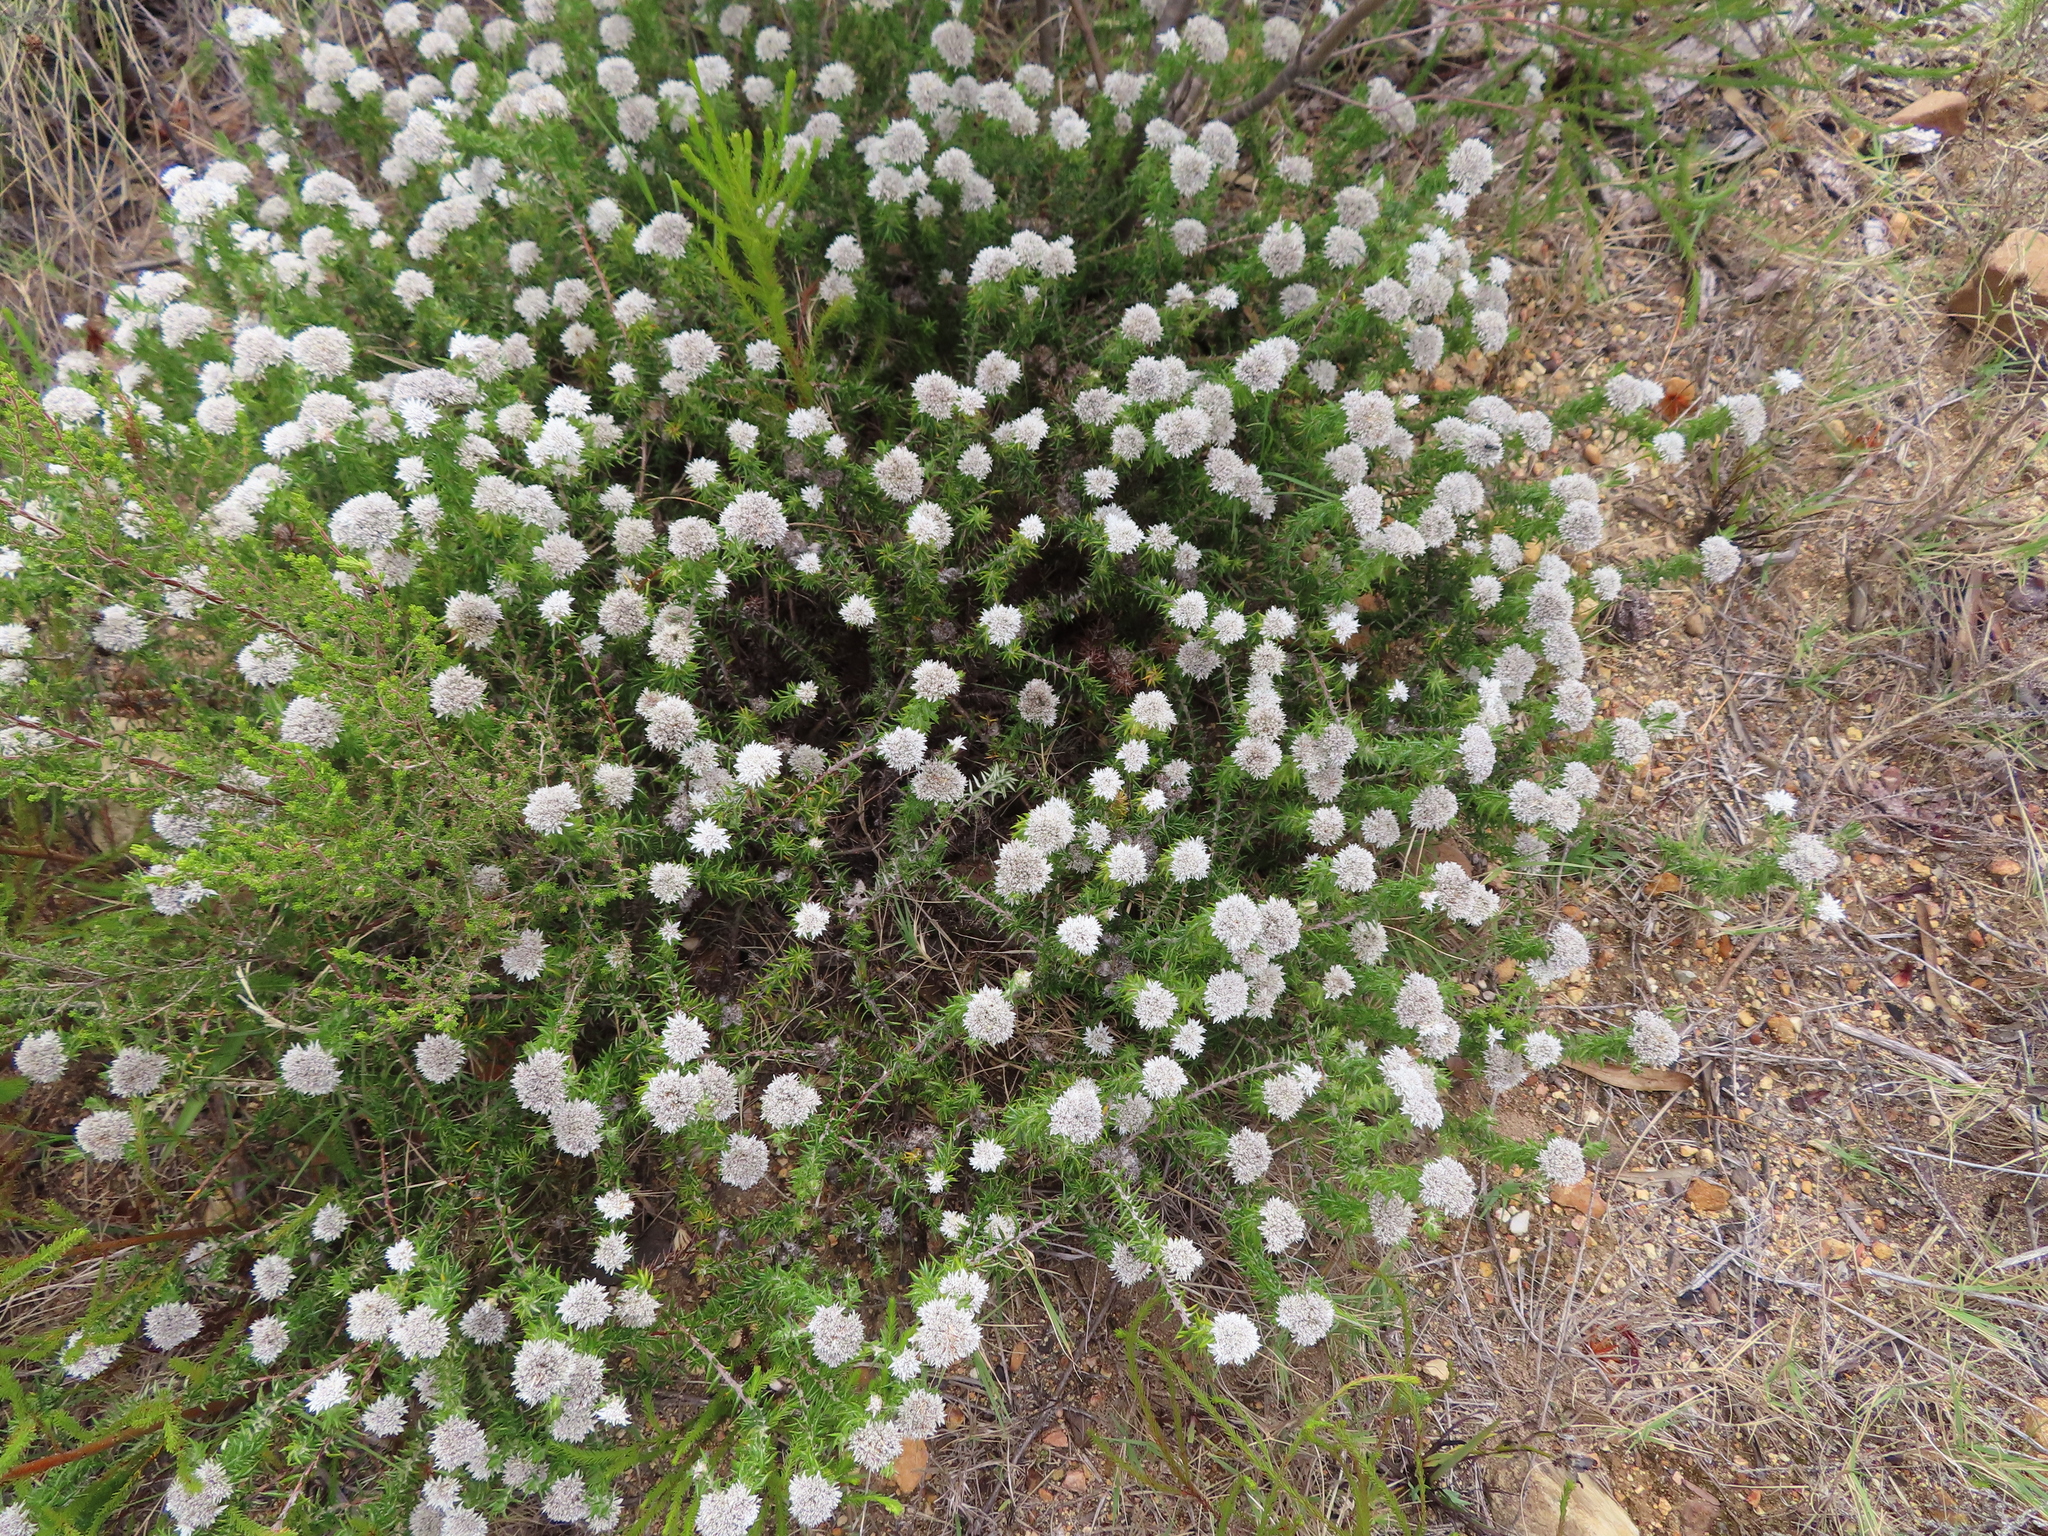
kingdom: Plantae
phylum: Tracheophyta
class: Magnoliopsida
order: Asterales
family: Asteraceae
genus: Metalasia
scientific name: Metalasia inversa
